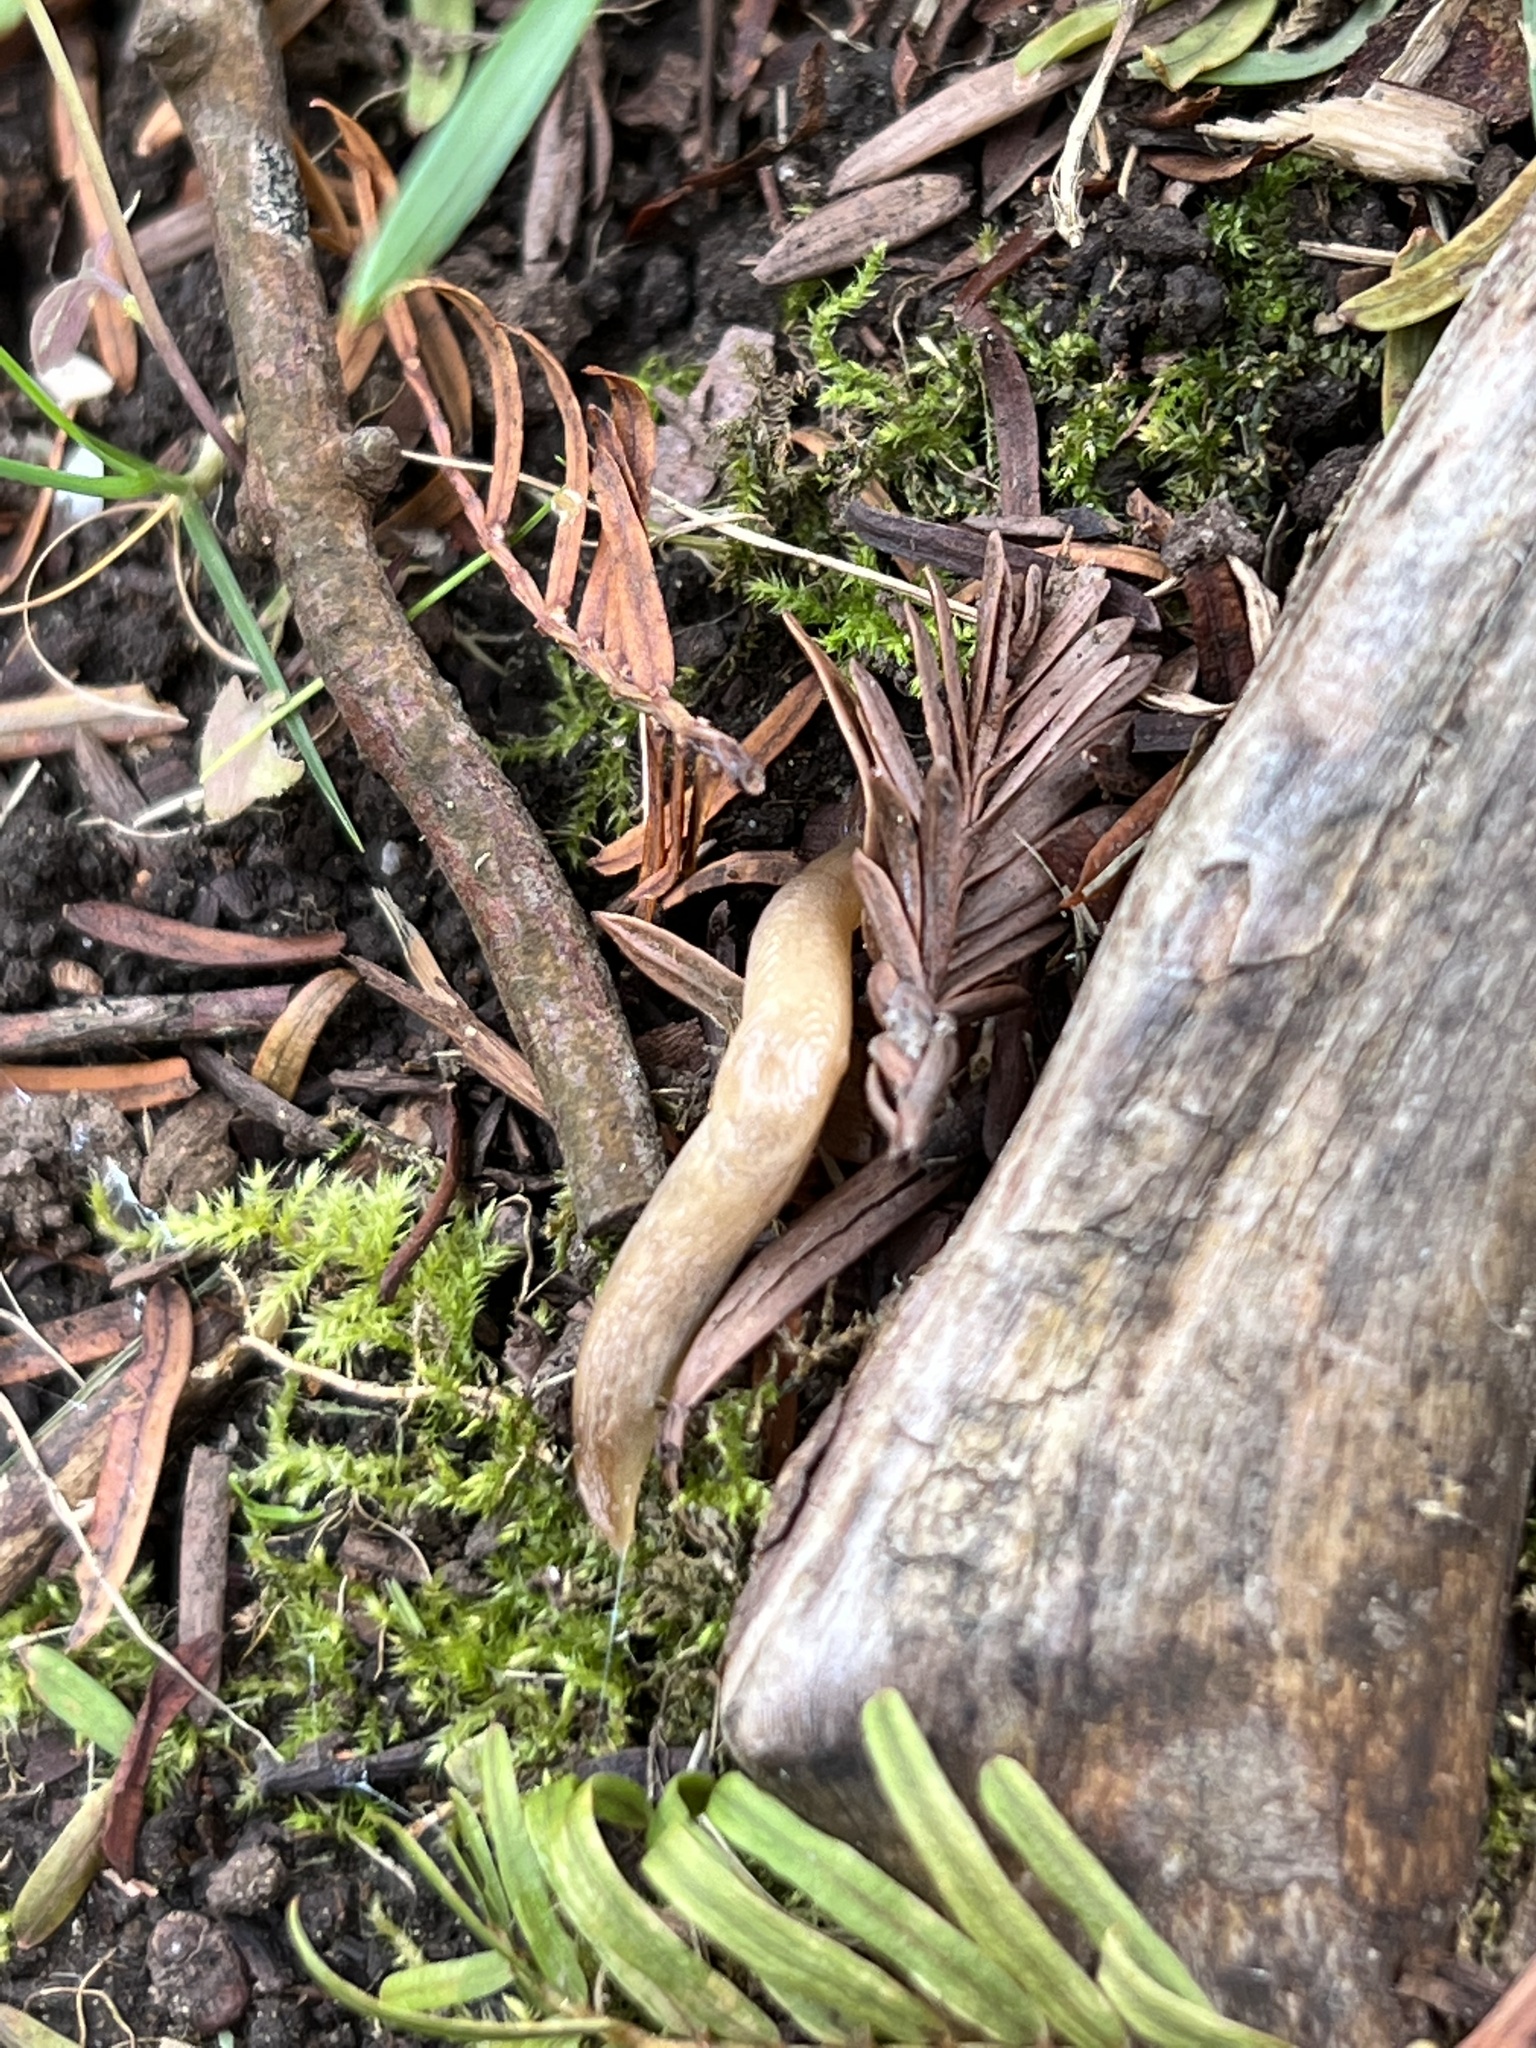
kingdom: Animalia
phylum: Mollusca
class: Gastropoda
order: Stylommatophora
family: Agriolimacidae
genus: Deroceras
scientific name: Deroceras reticulatum
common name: Gray field slug
